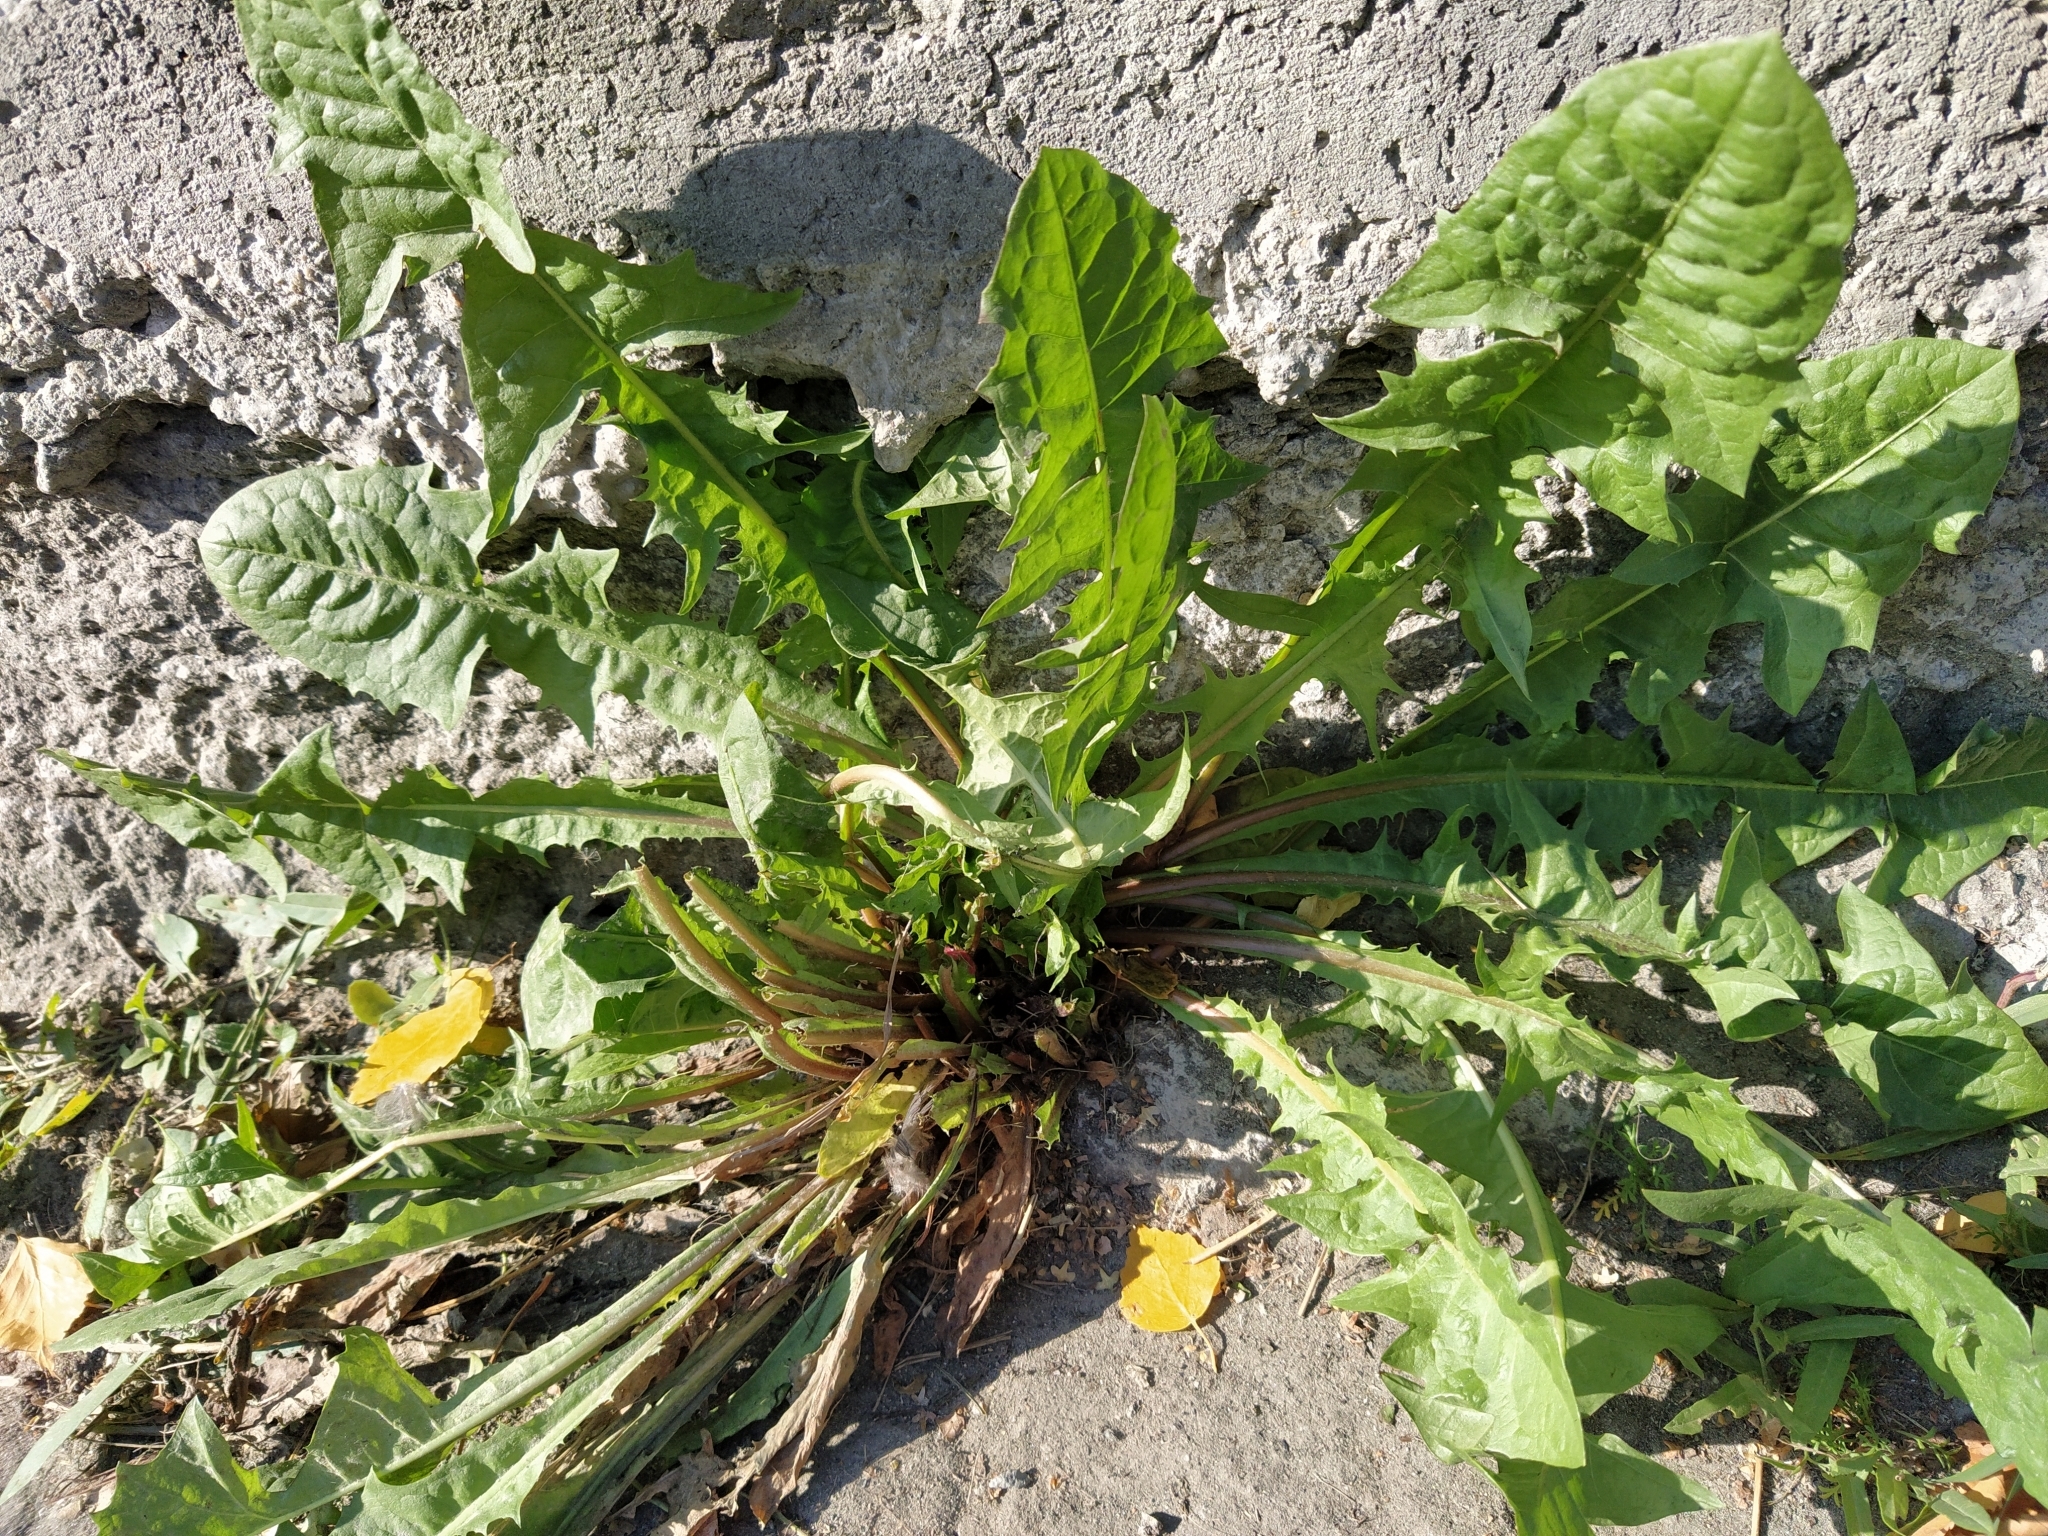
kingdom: Plantae
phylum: Tracheophyta
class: Magnoliopsida
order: Asterales
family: Asteraceae
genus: Taraxacum
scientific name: Taraxacum officinale
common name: Common dandelion
